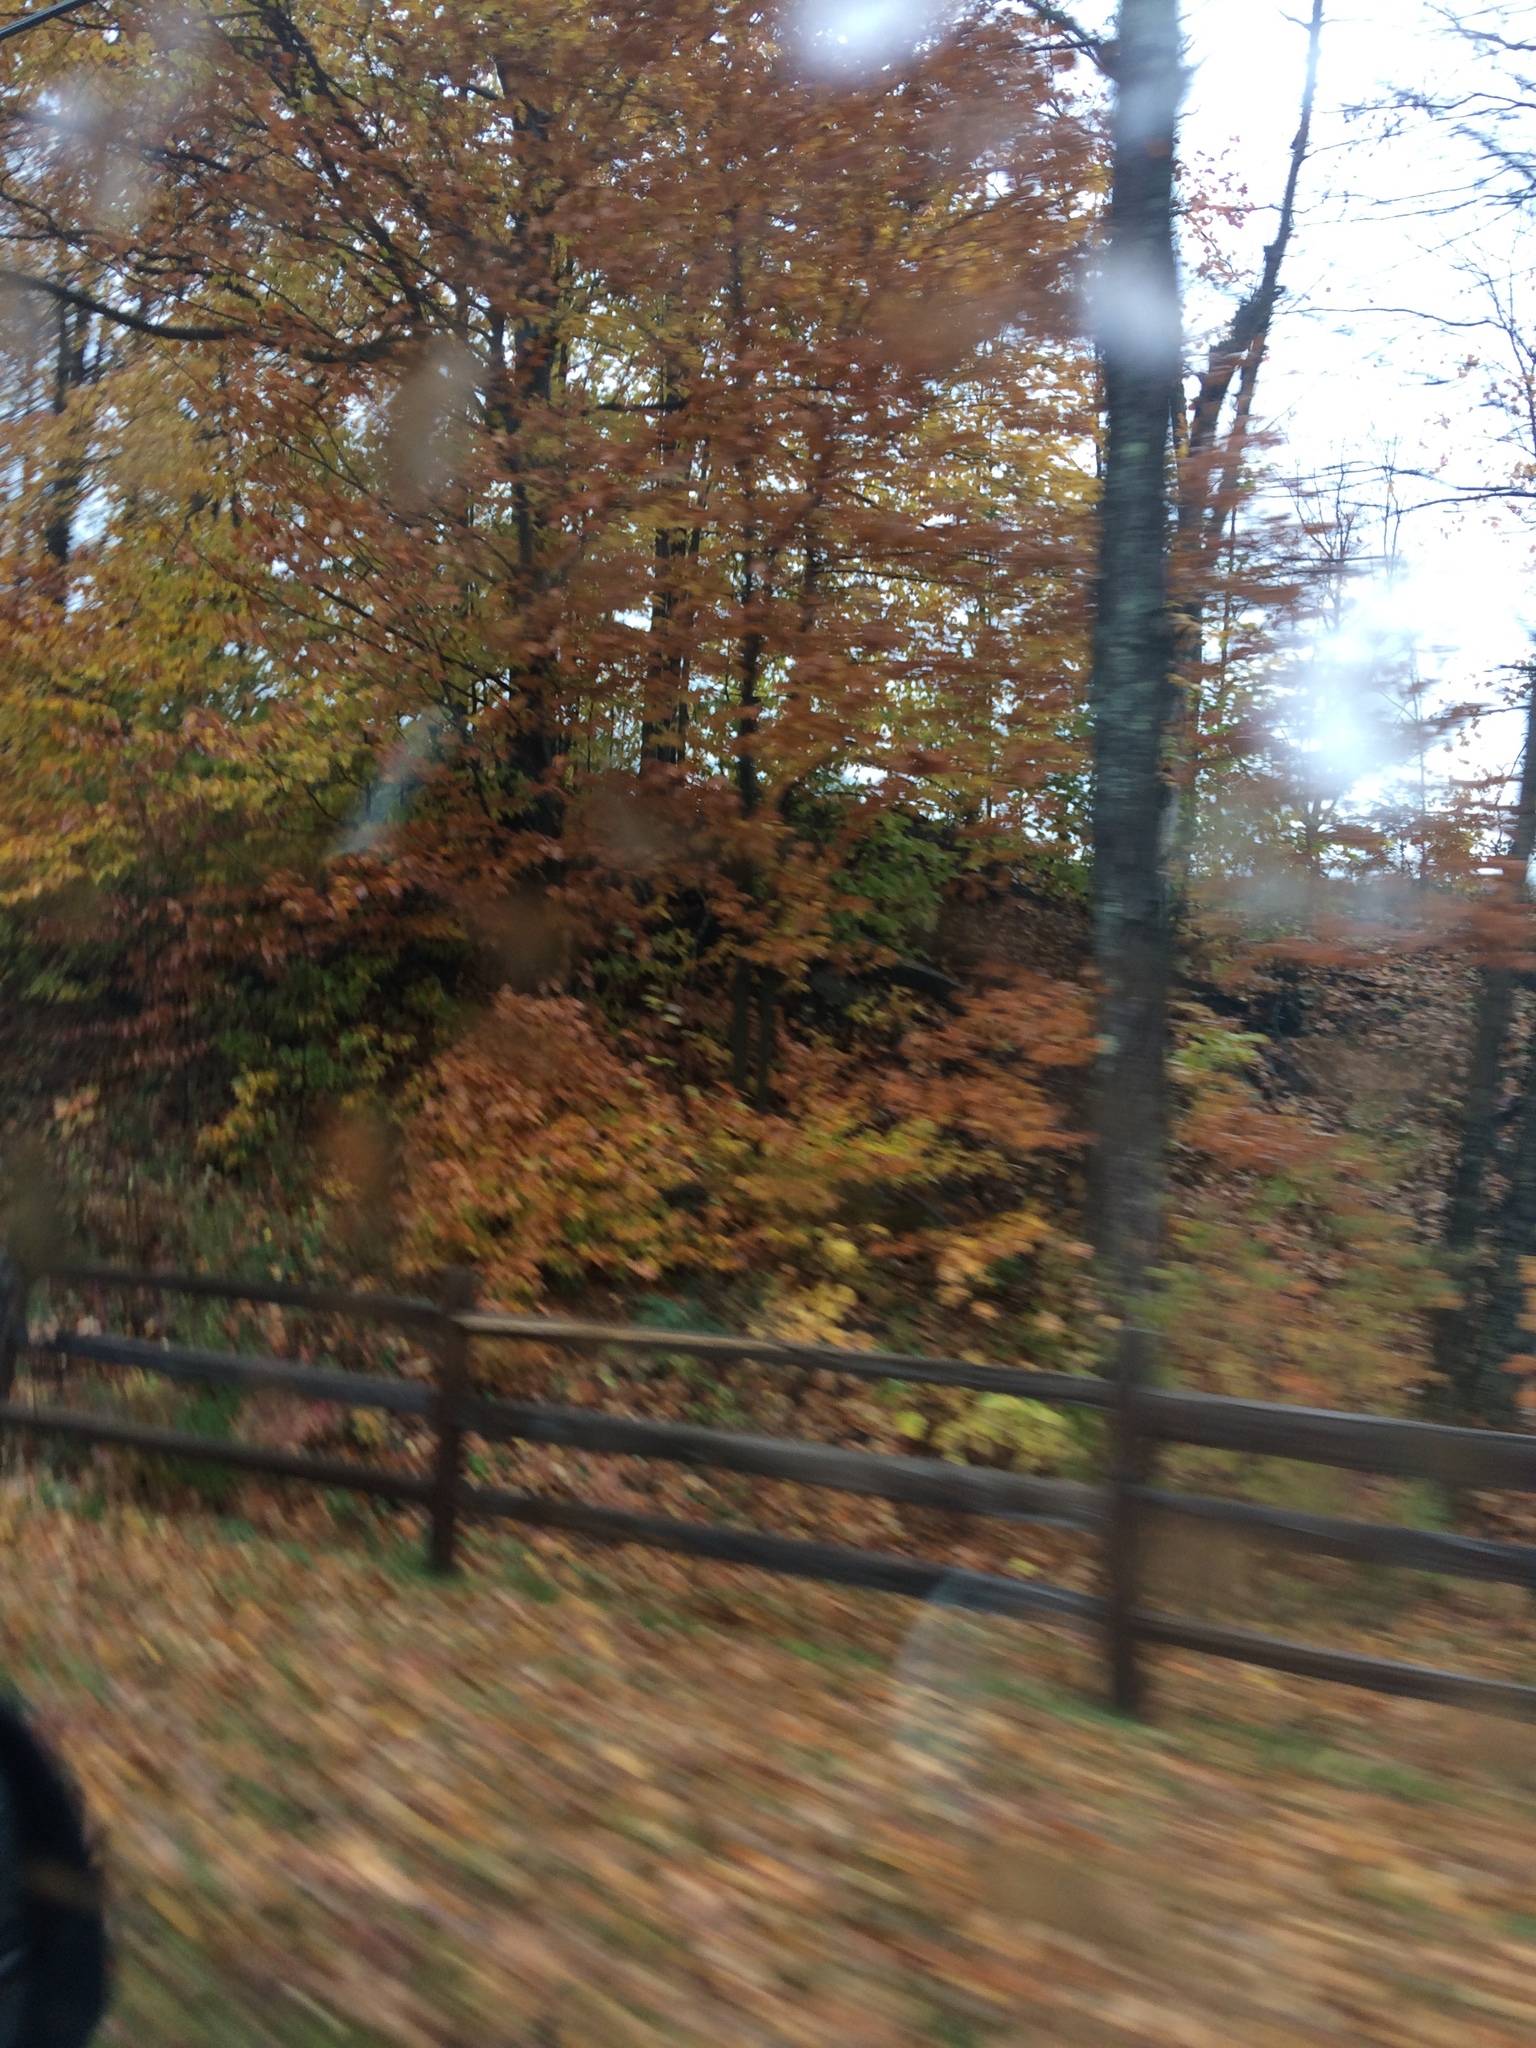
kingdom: Plantae
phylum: Tracheophyta
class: Magnoliopsida
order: Fagales
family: Fagaceae
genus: Fagus
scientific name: Fagus grandifolia
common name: American beech
